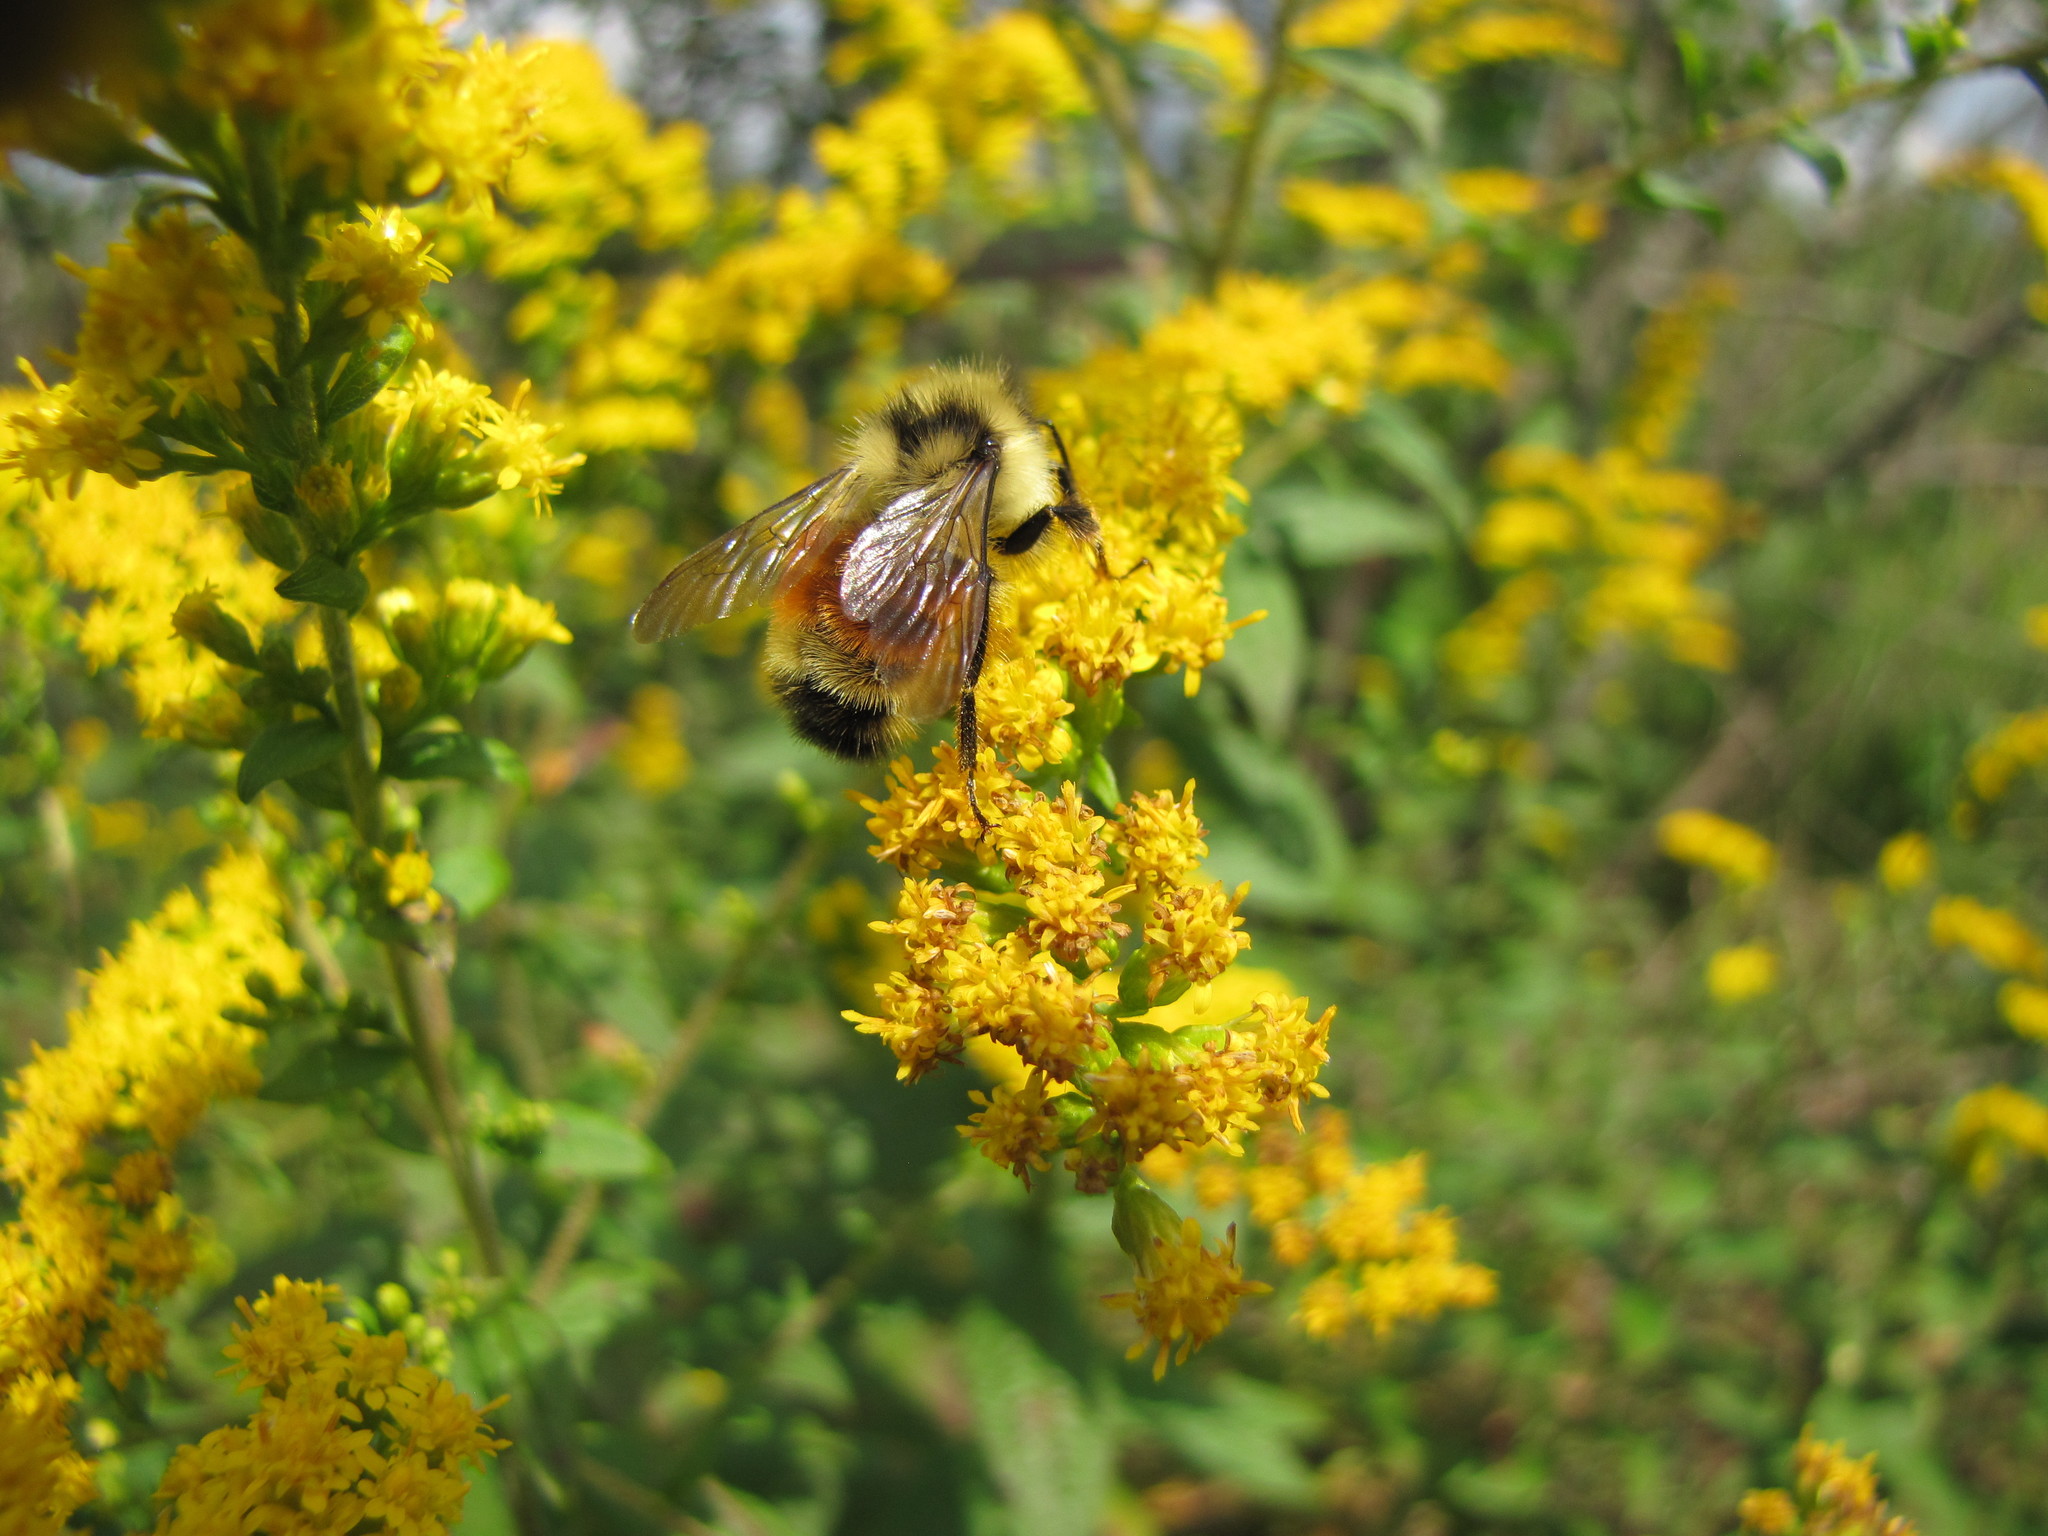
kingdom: Animalia
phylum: Arthropoda
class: Insecta
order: Hymenoptera
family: Apidae
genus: Bombus
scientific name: Bombus ternarius
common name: Tri-colored bumble bee
